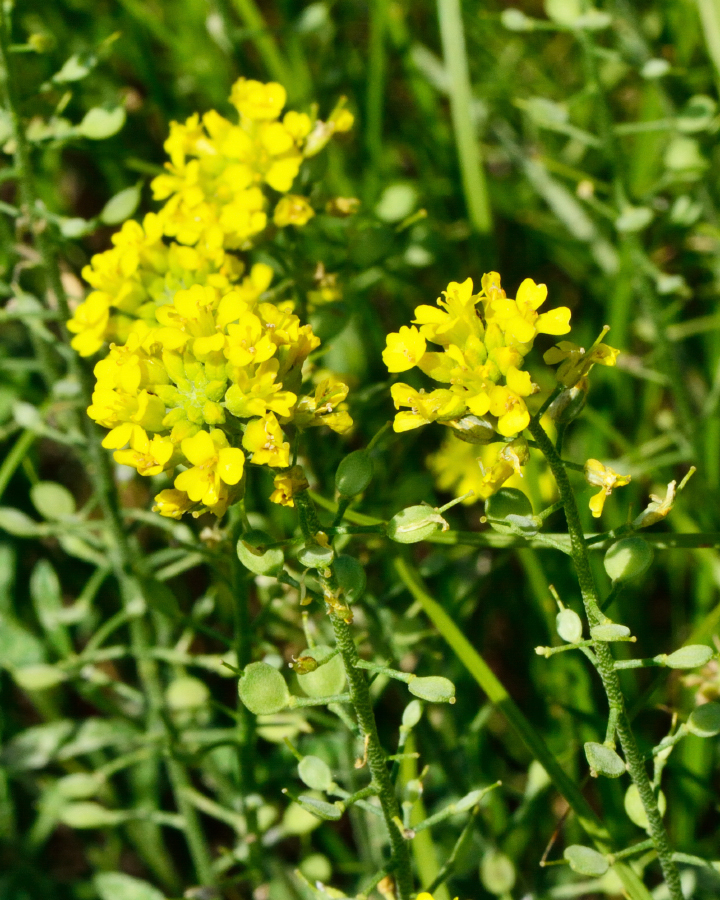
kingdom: Plantae
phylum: Tracheophyta
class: Magnoliopsida
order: Brassicales
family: Brassicaceae
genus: Alyssum
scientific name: Alyssum gmelinii
